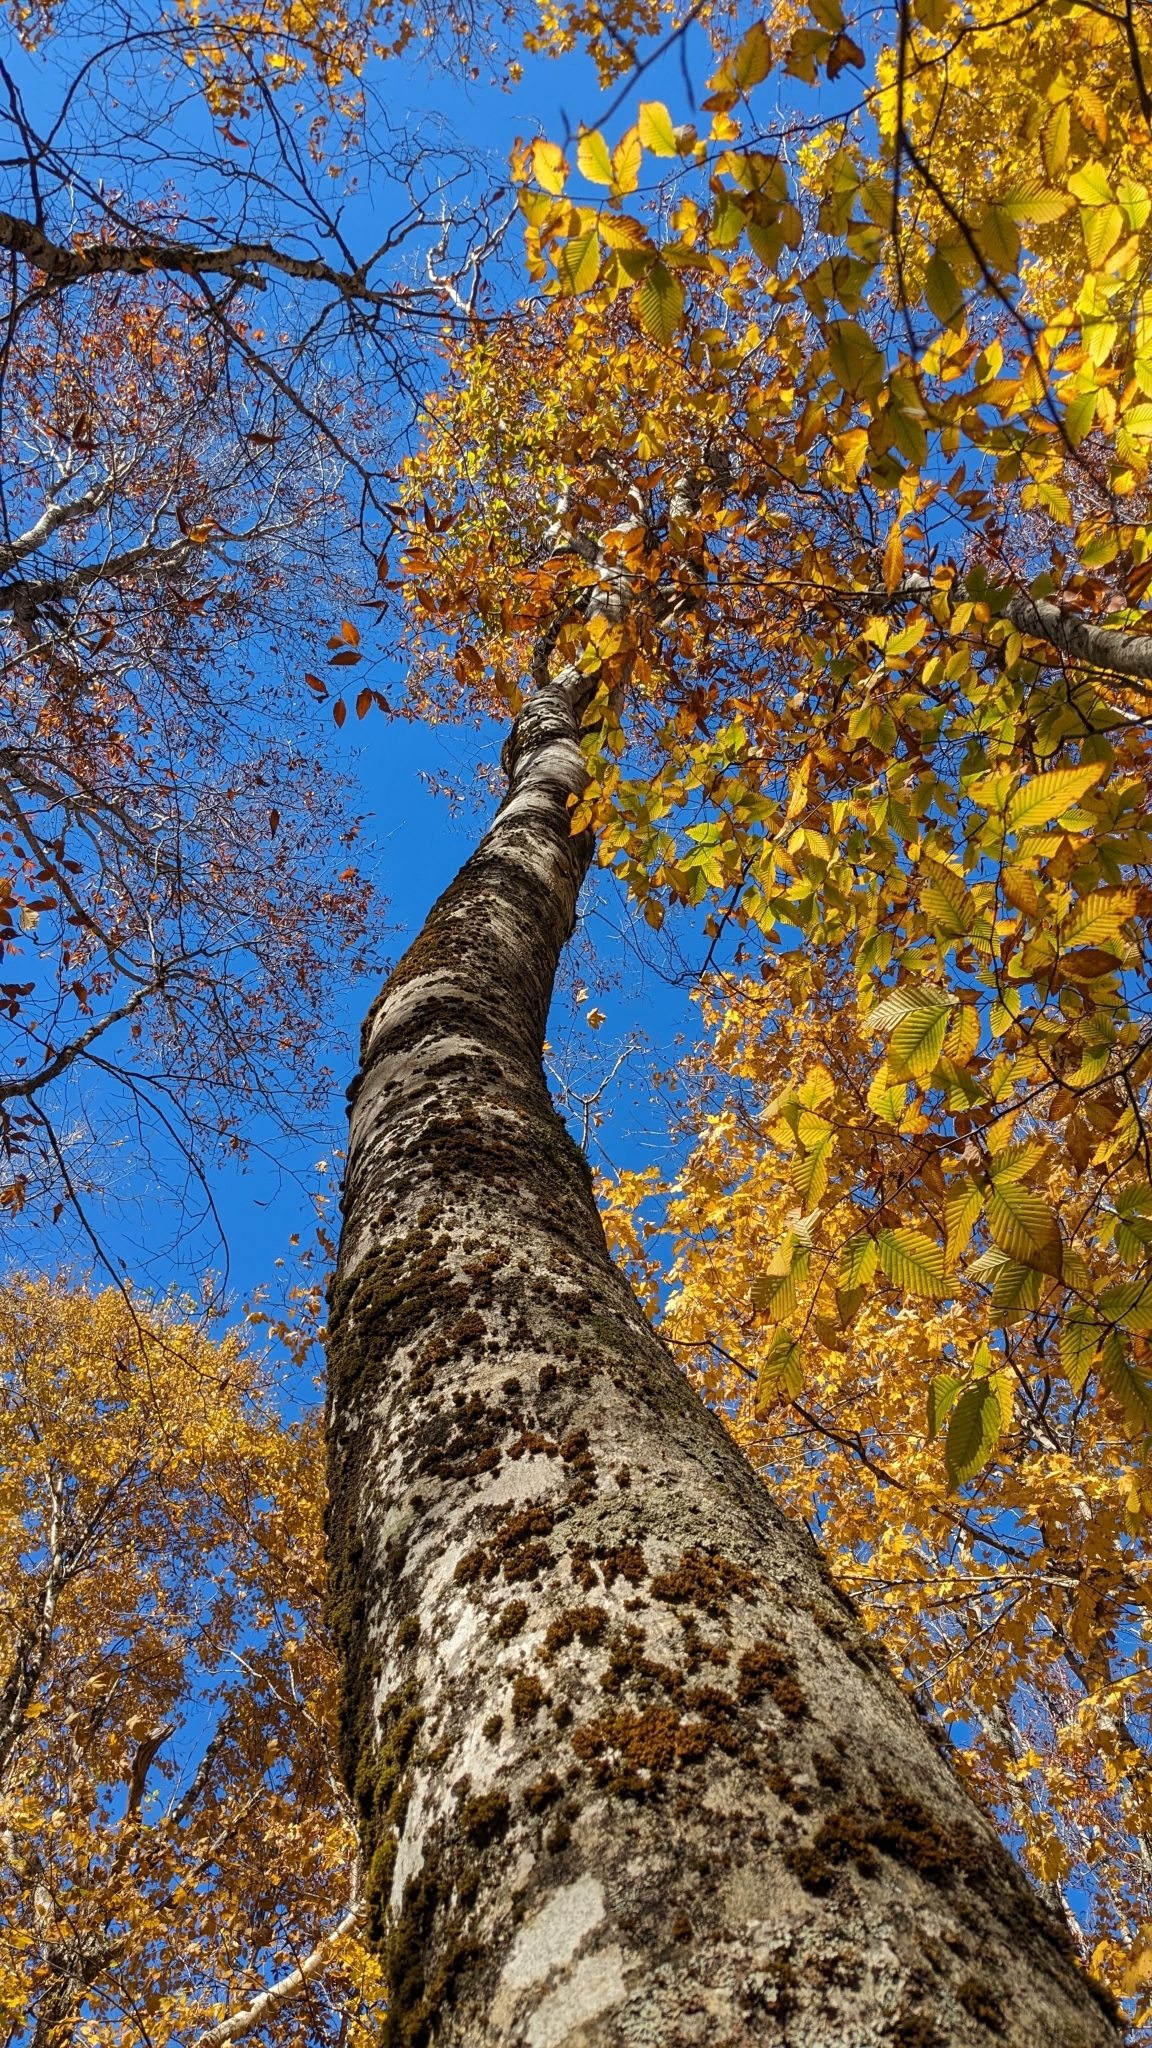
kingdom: Plantae
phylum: Tracheophyta
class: Magnoliopsida
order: Fagales
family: Fagaceae
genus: Fagus
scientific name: Fagus grandifolia
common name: American beech
